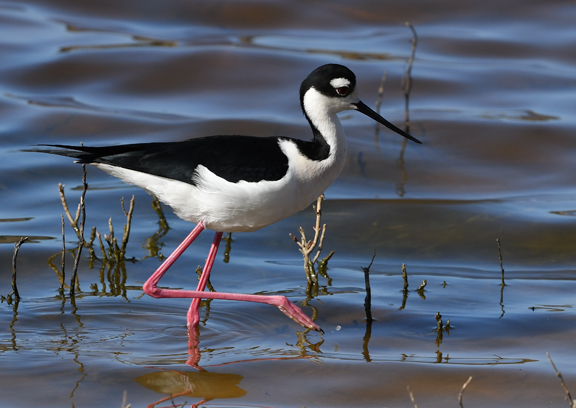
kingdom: Animalia
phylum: Chordata
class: Aves
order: Charadriiformes
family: Recurvirostridae
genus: Himantopus
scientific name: Himantopus mexicanus
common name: Black-necked stilt
